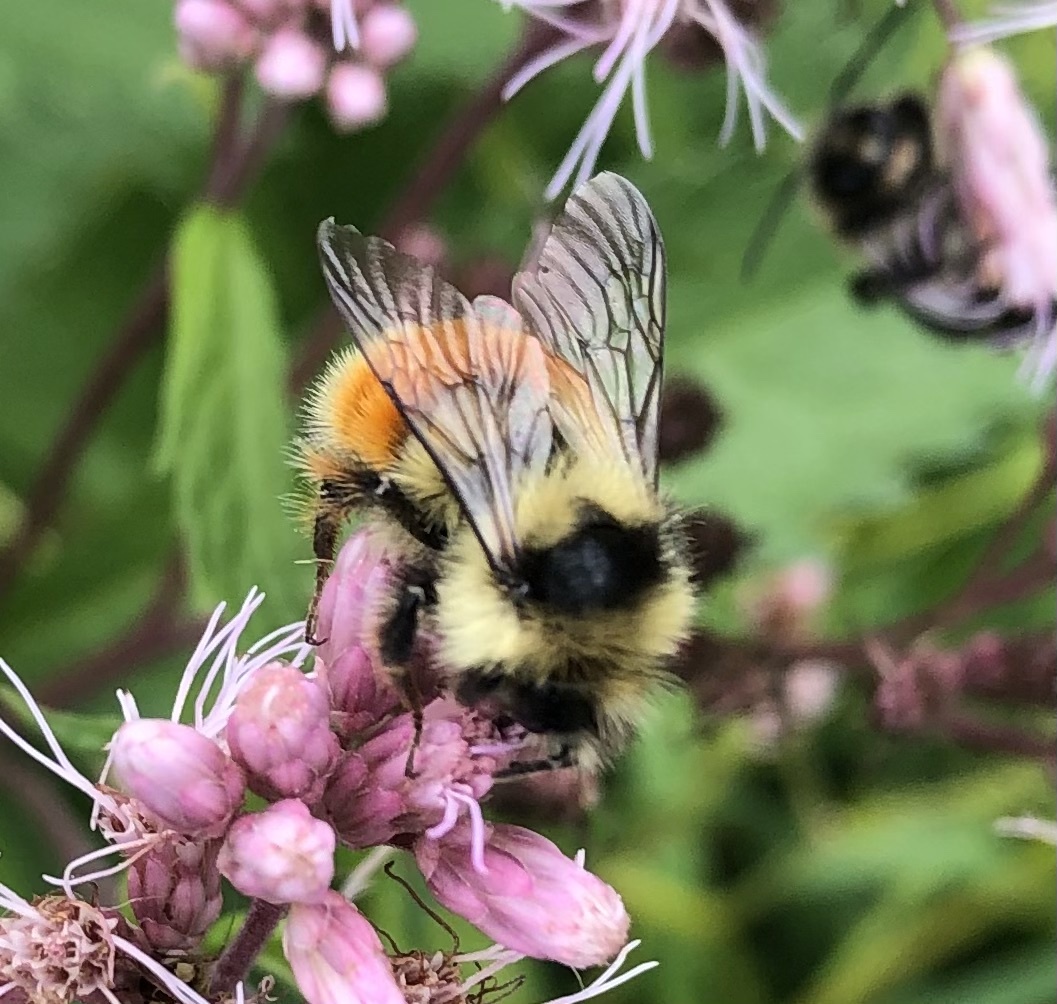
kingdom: Animalia
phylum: Arthropoda
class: Insecta
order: Hymenoptera
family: Apidae
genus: Bombus
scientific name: Bombus ternarius
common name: Tri-colored bumble bee
